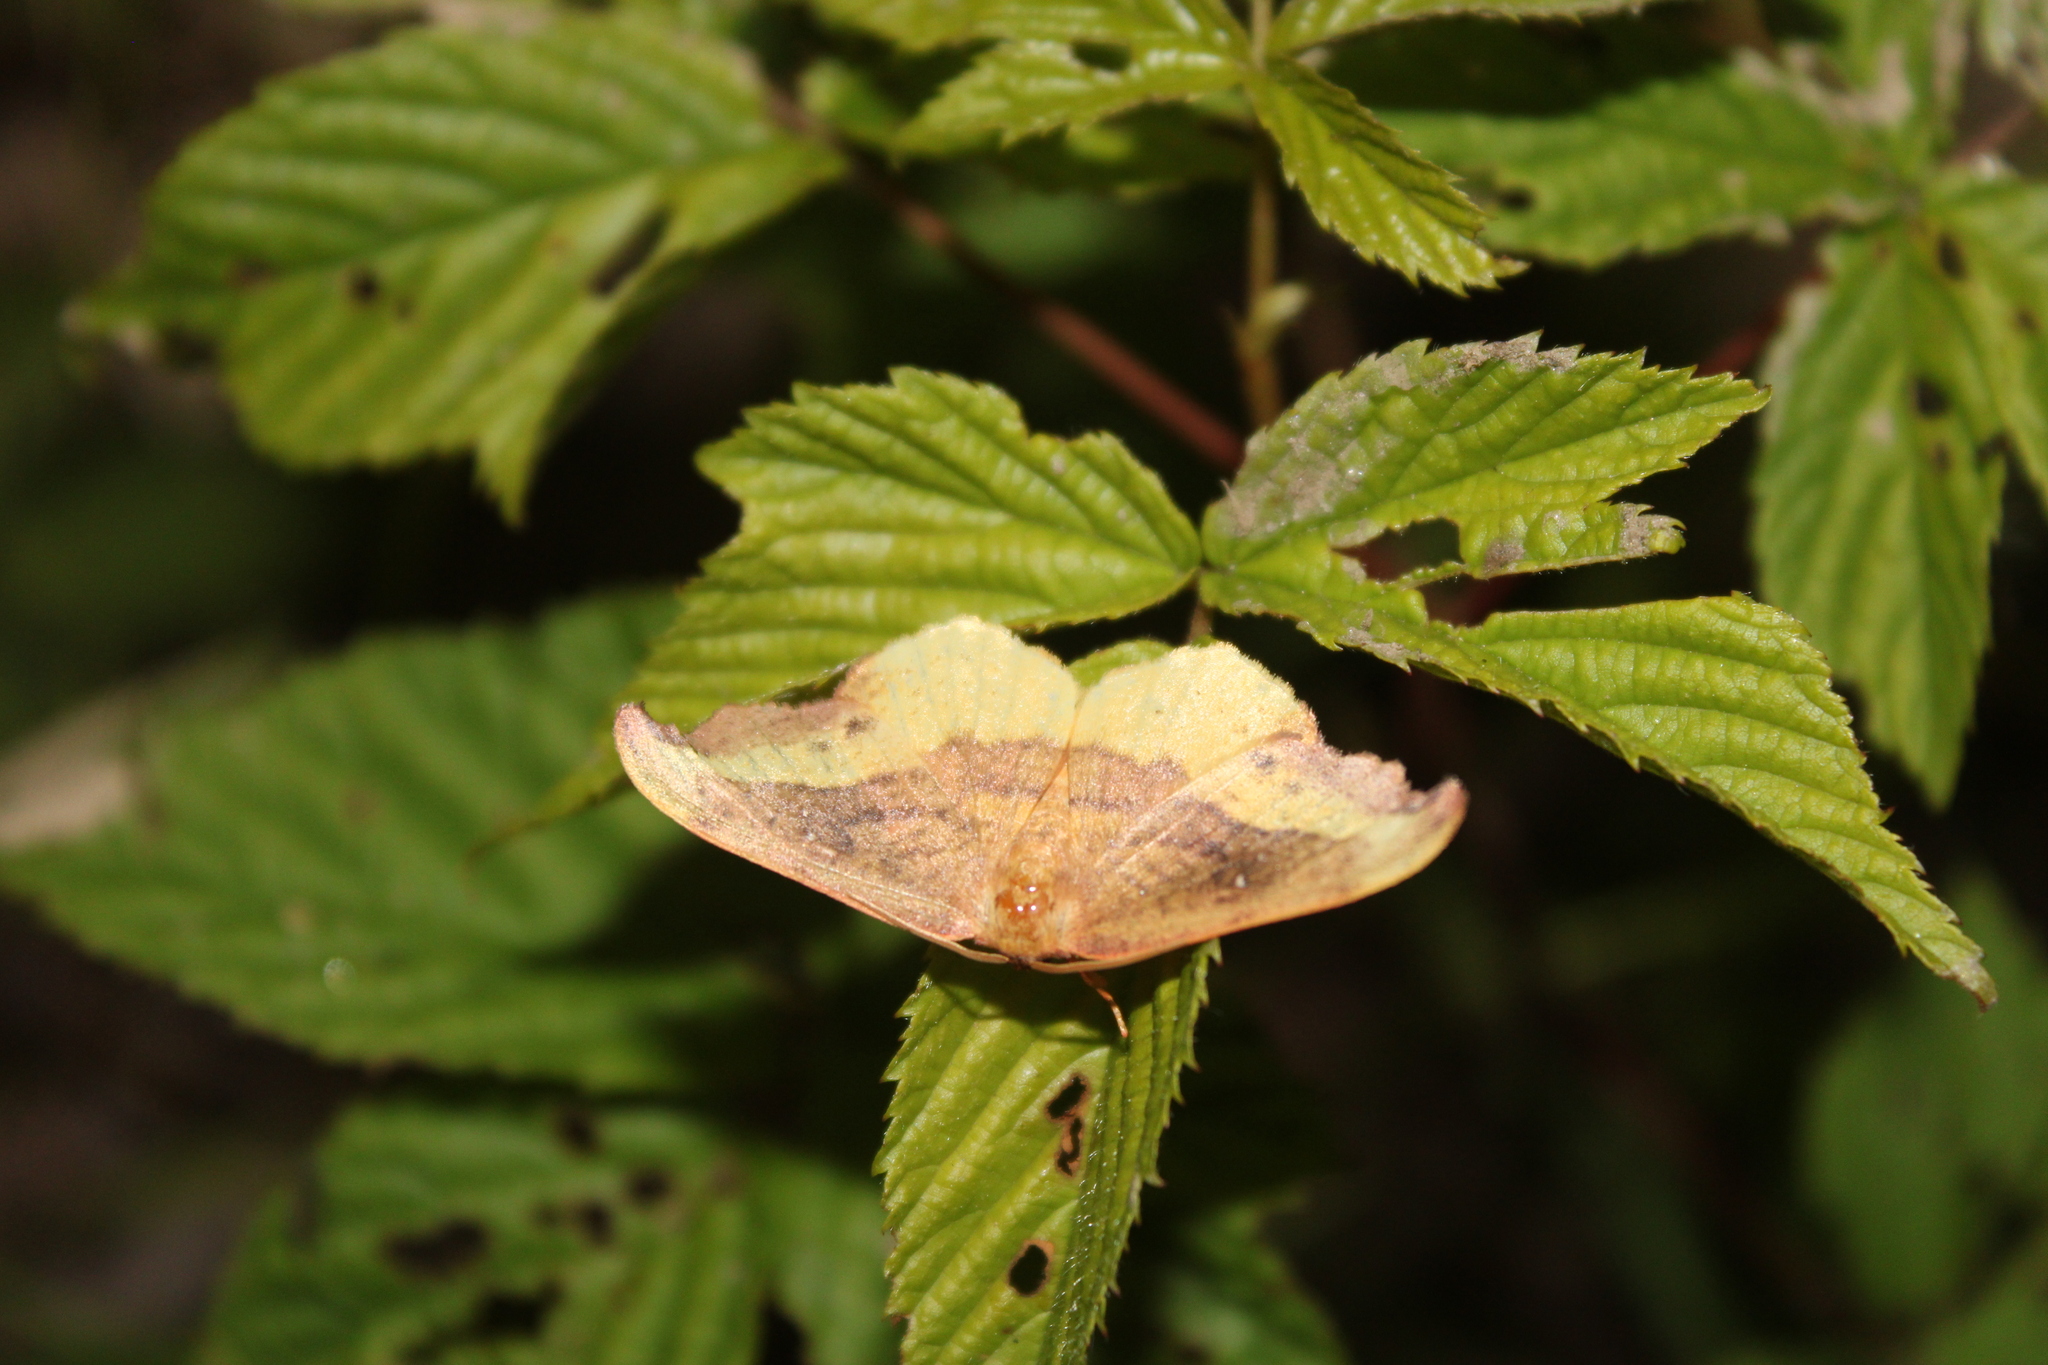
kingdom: Animalia
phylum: Arthropoda
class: Insecta
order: Lepidoptera
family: Drepanidae
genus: Oreta
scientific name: Oreta rosea
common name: Rose hooktip
